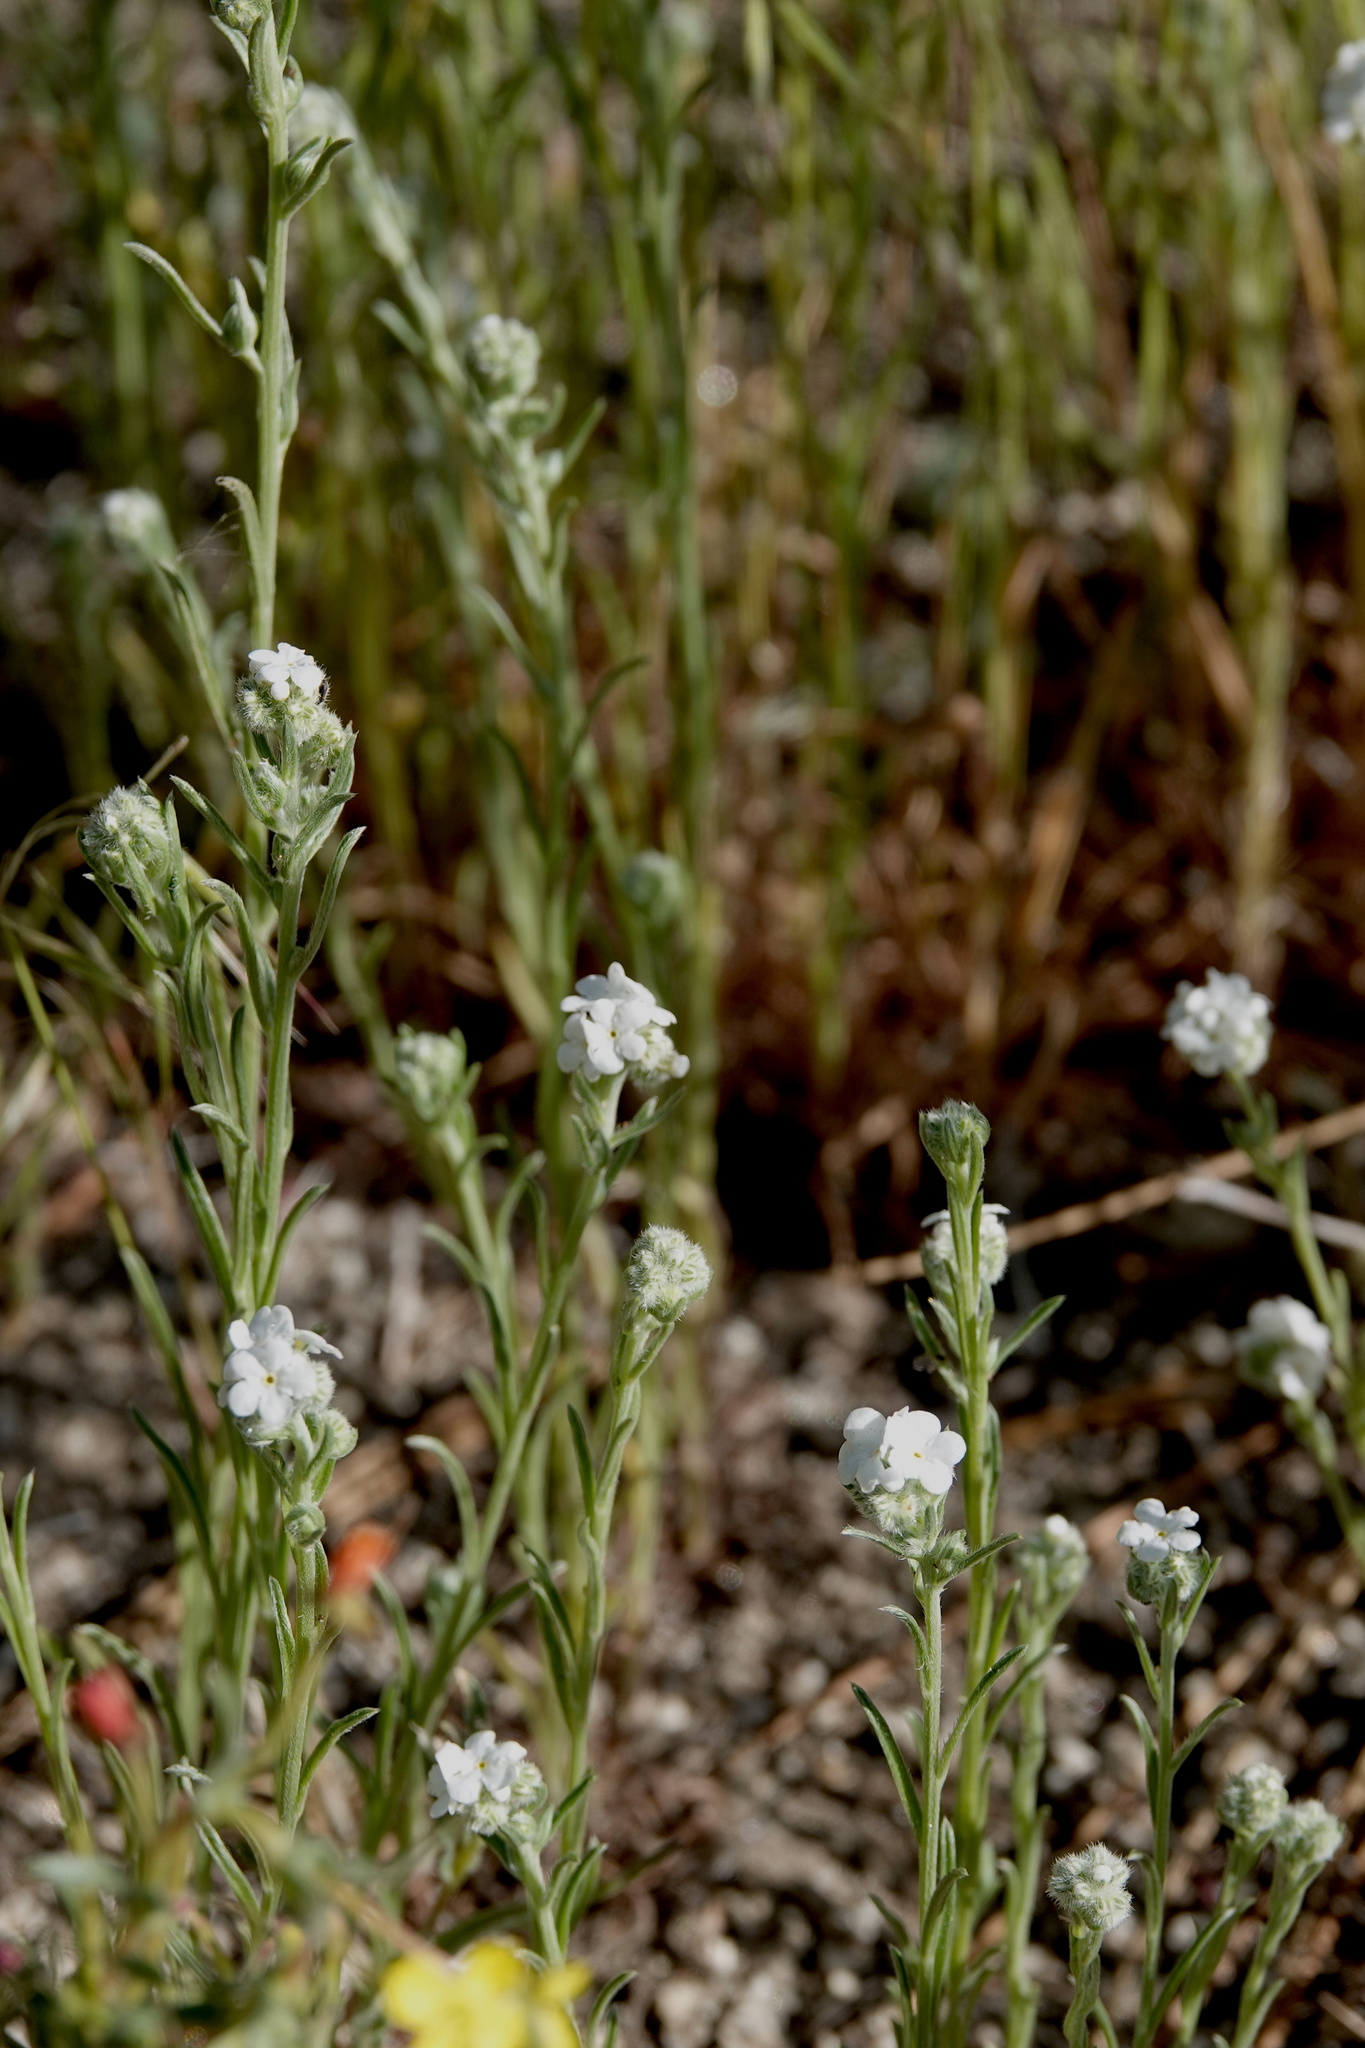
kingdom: Plantae
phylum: Tracheophyta
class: Magnoliopsida
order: Boraginales
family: Boraginaceae
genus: Cryptantha
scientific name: Cryptantha intermedia
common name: Clearwater cryptantha
